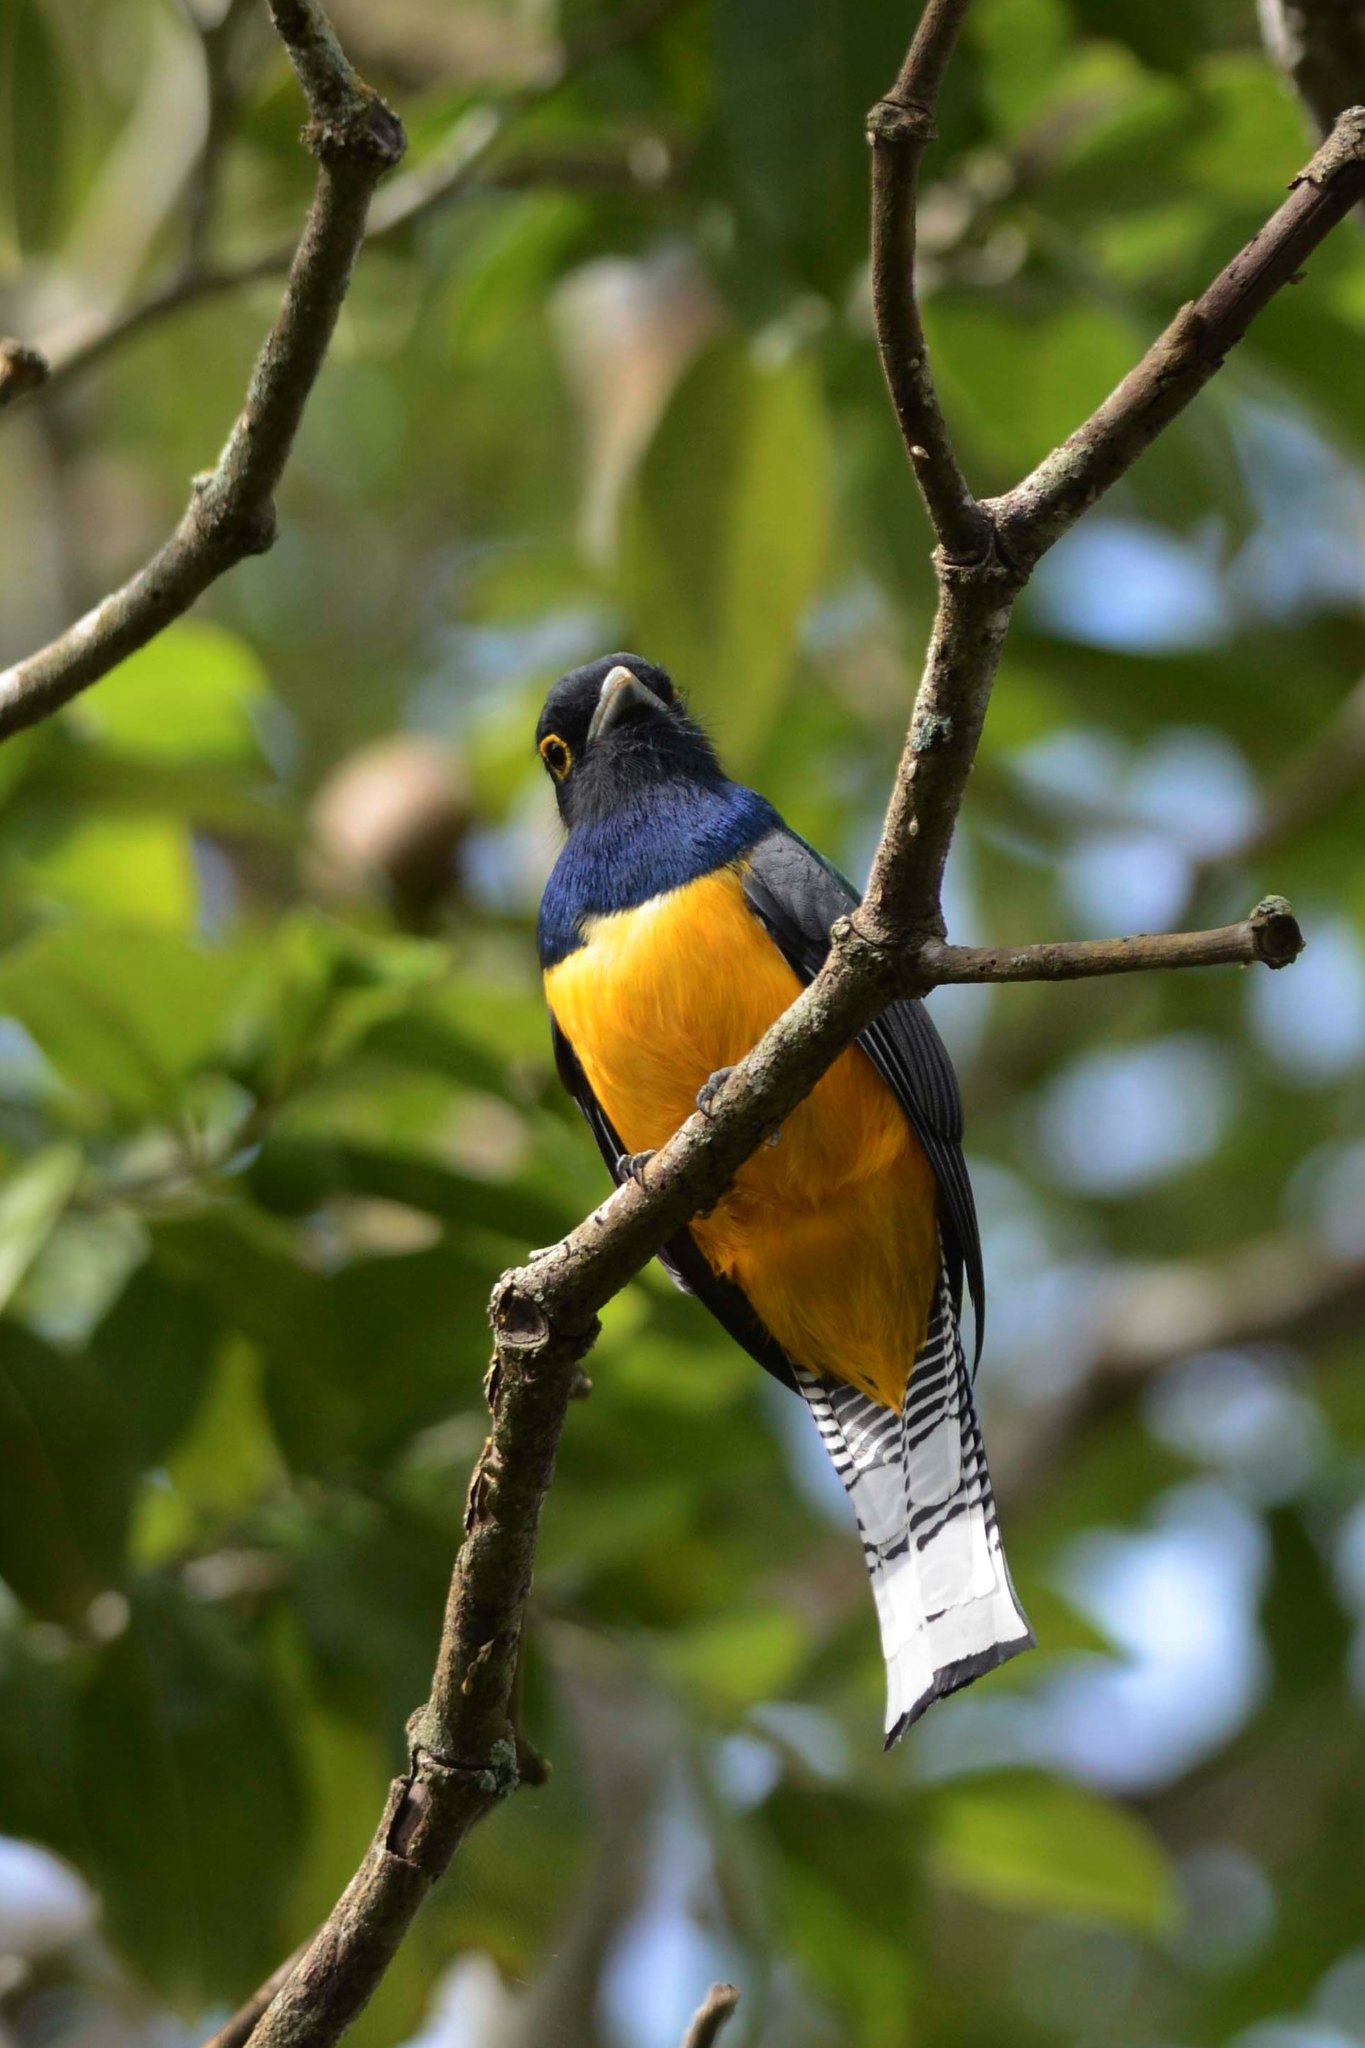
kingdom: Animalia
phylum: Chordata
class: Aves
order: Trogoniformes
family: Trogonidae
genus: Trogon
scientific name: Trogon caligatus
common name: Gartered trogon
